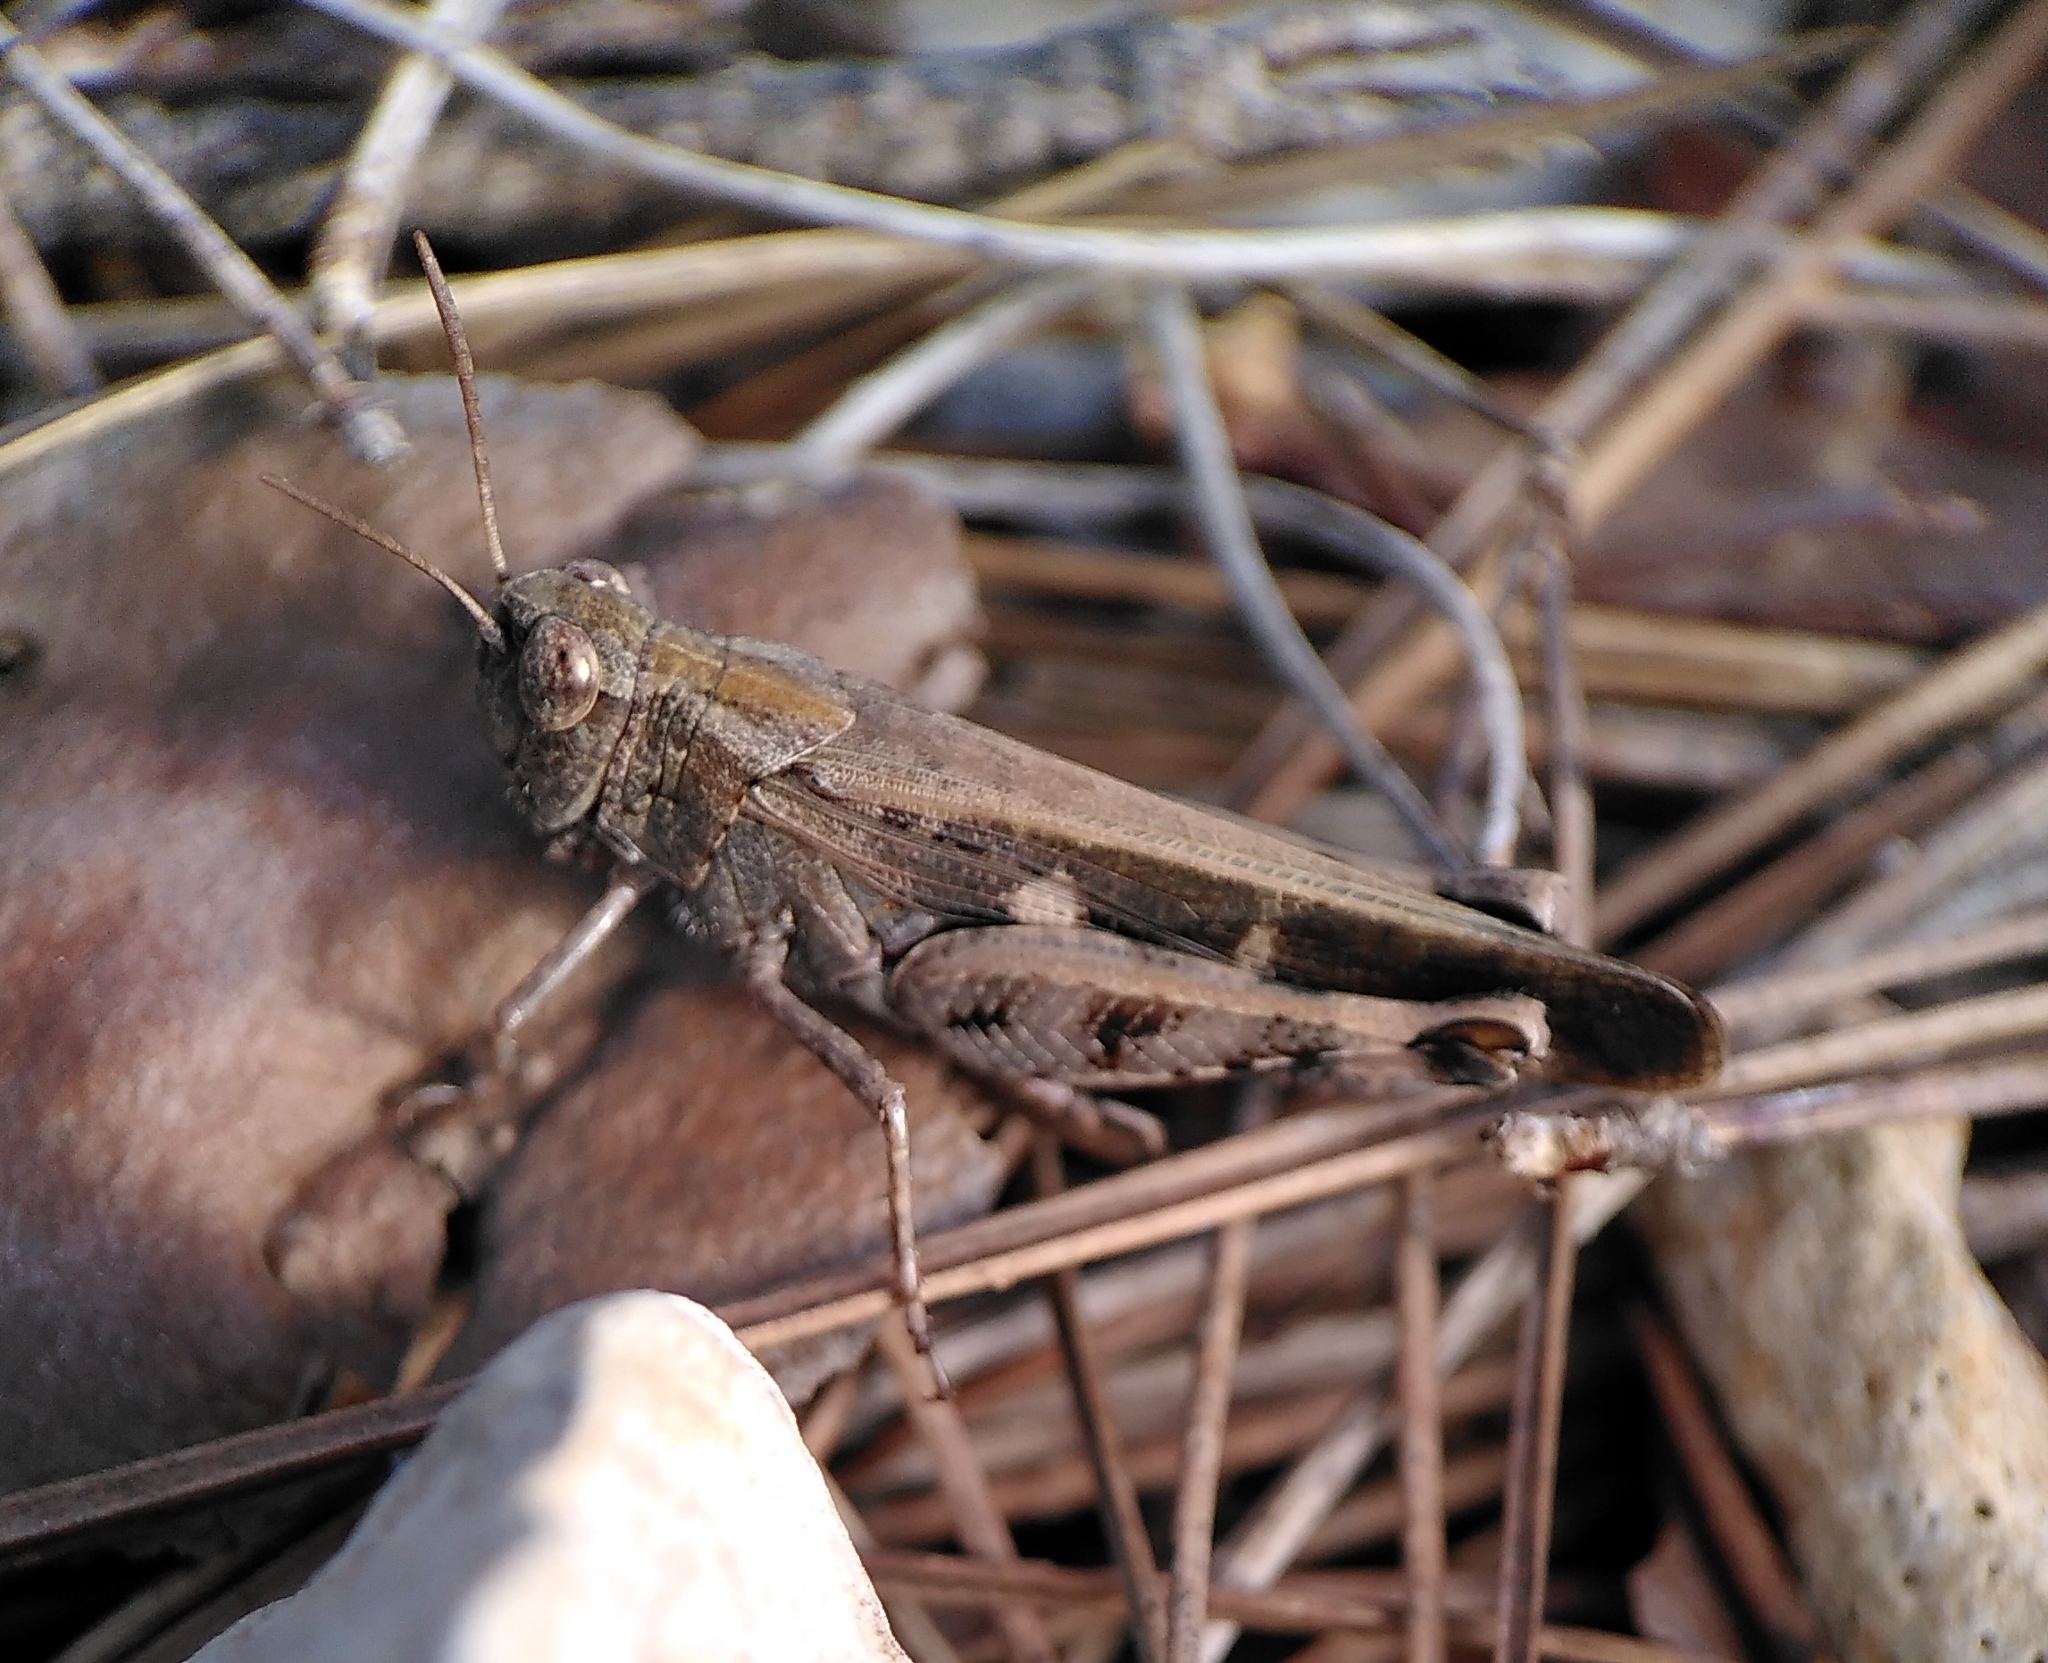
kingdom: Animalia
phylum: Arthropoda
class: Insecta
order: Orthoptera
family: Acrididae
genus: Aiolopus
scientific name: Aiolopus strepens
